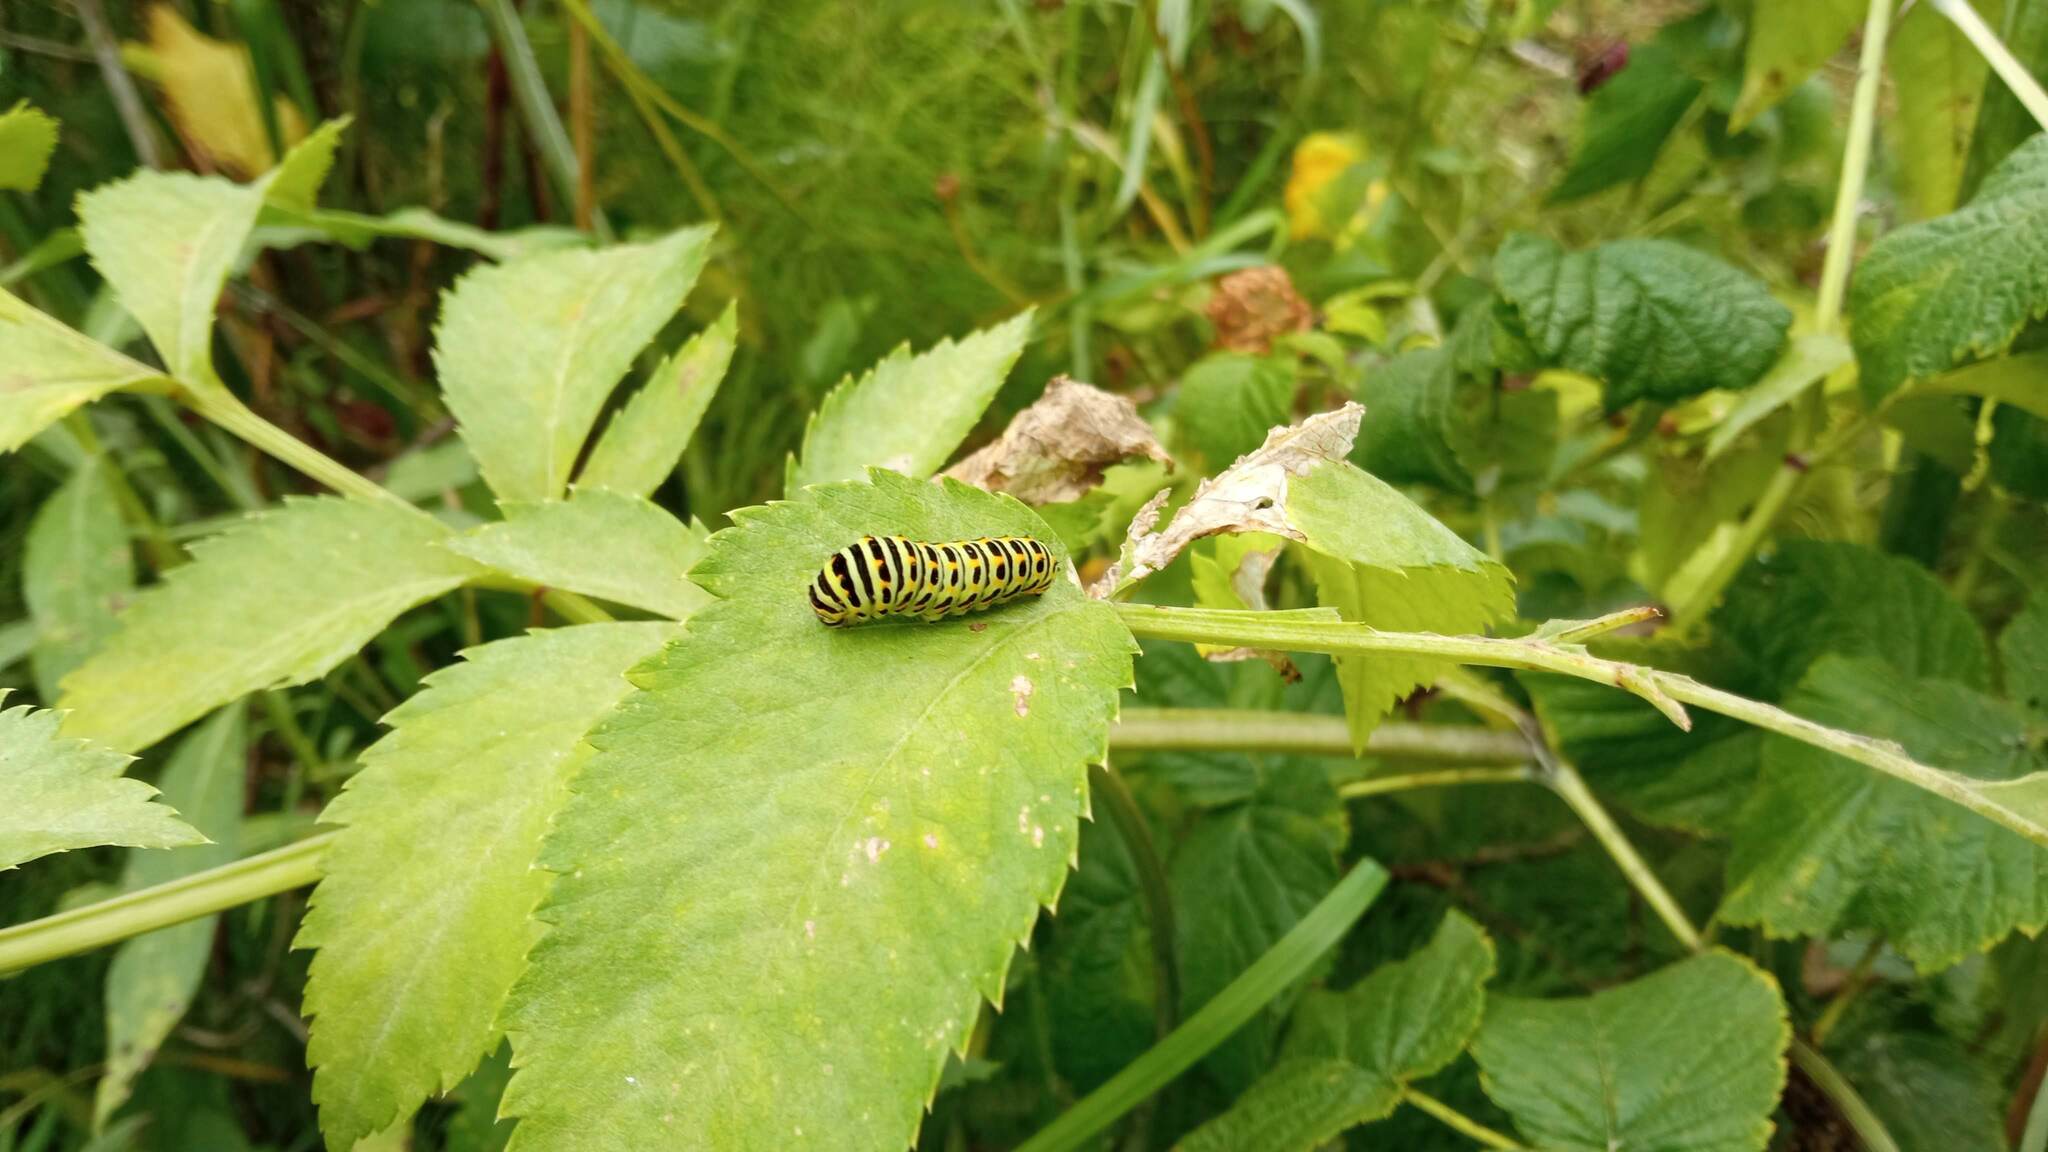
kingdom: Animalia
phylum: Arthropoda
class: Insecta
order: Lepidoptera
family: Papilionidae
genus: Papilio
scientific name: Papilio machaon
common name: Swallowtail
